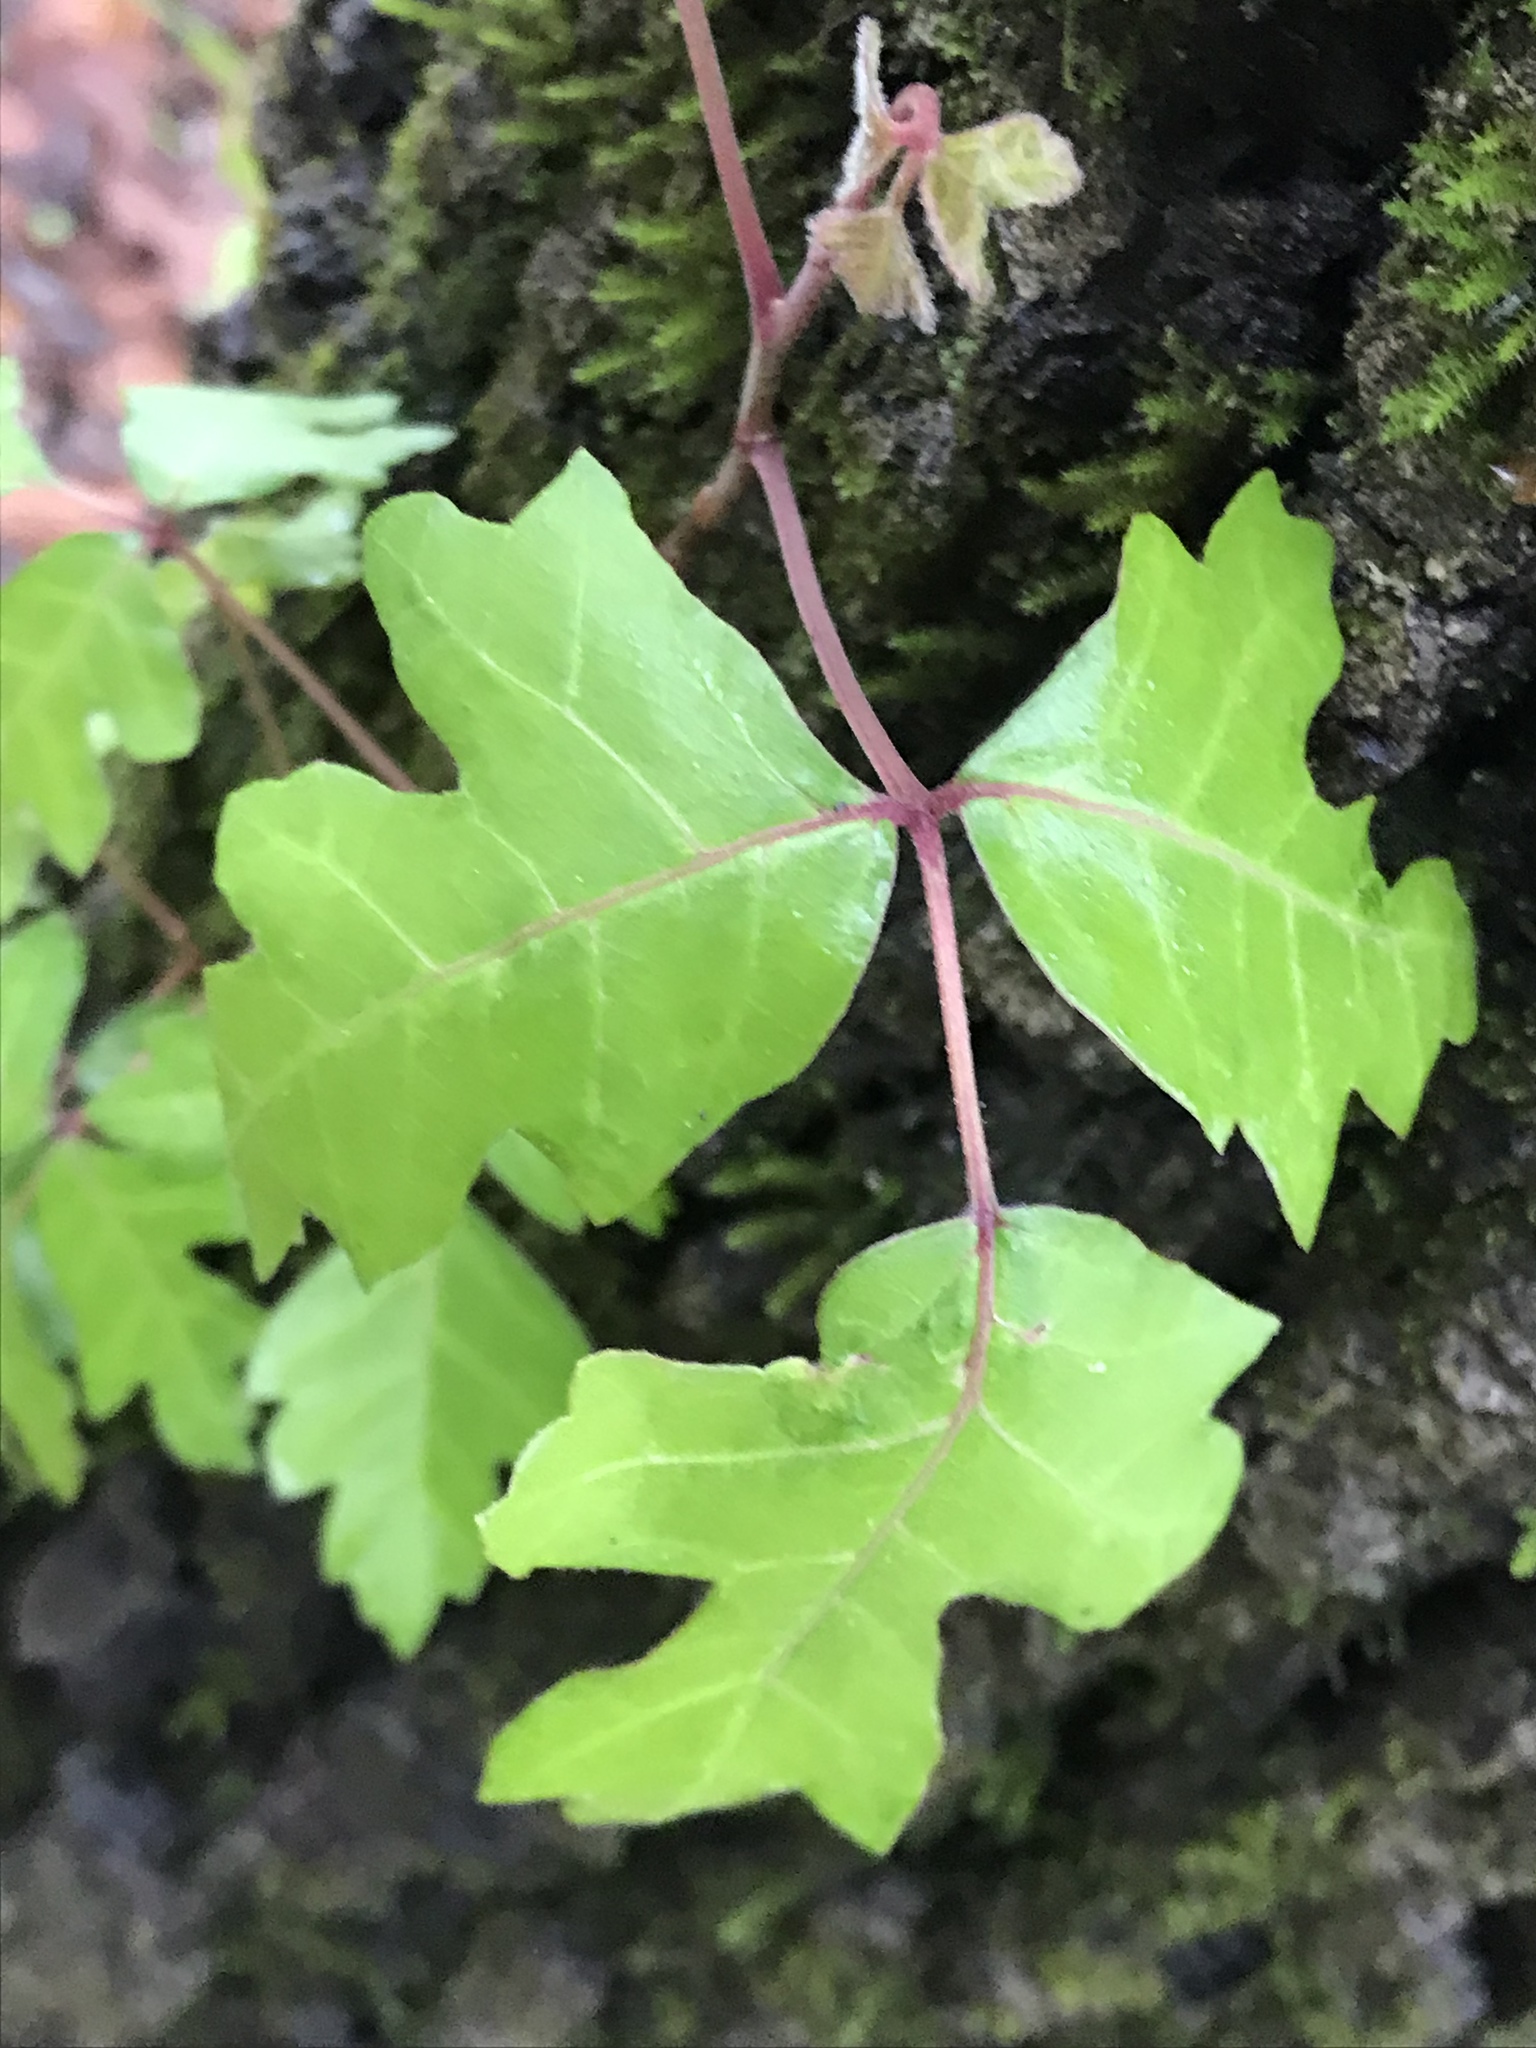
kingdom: Plantae
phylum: Tracheophyta
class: Magnoliopsida
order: Sapindales
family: Anacardiaceae
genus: Toxicodendron
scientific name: Toxicodendron radicans
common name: Poison ivy
